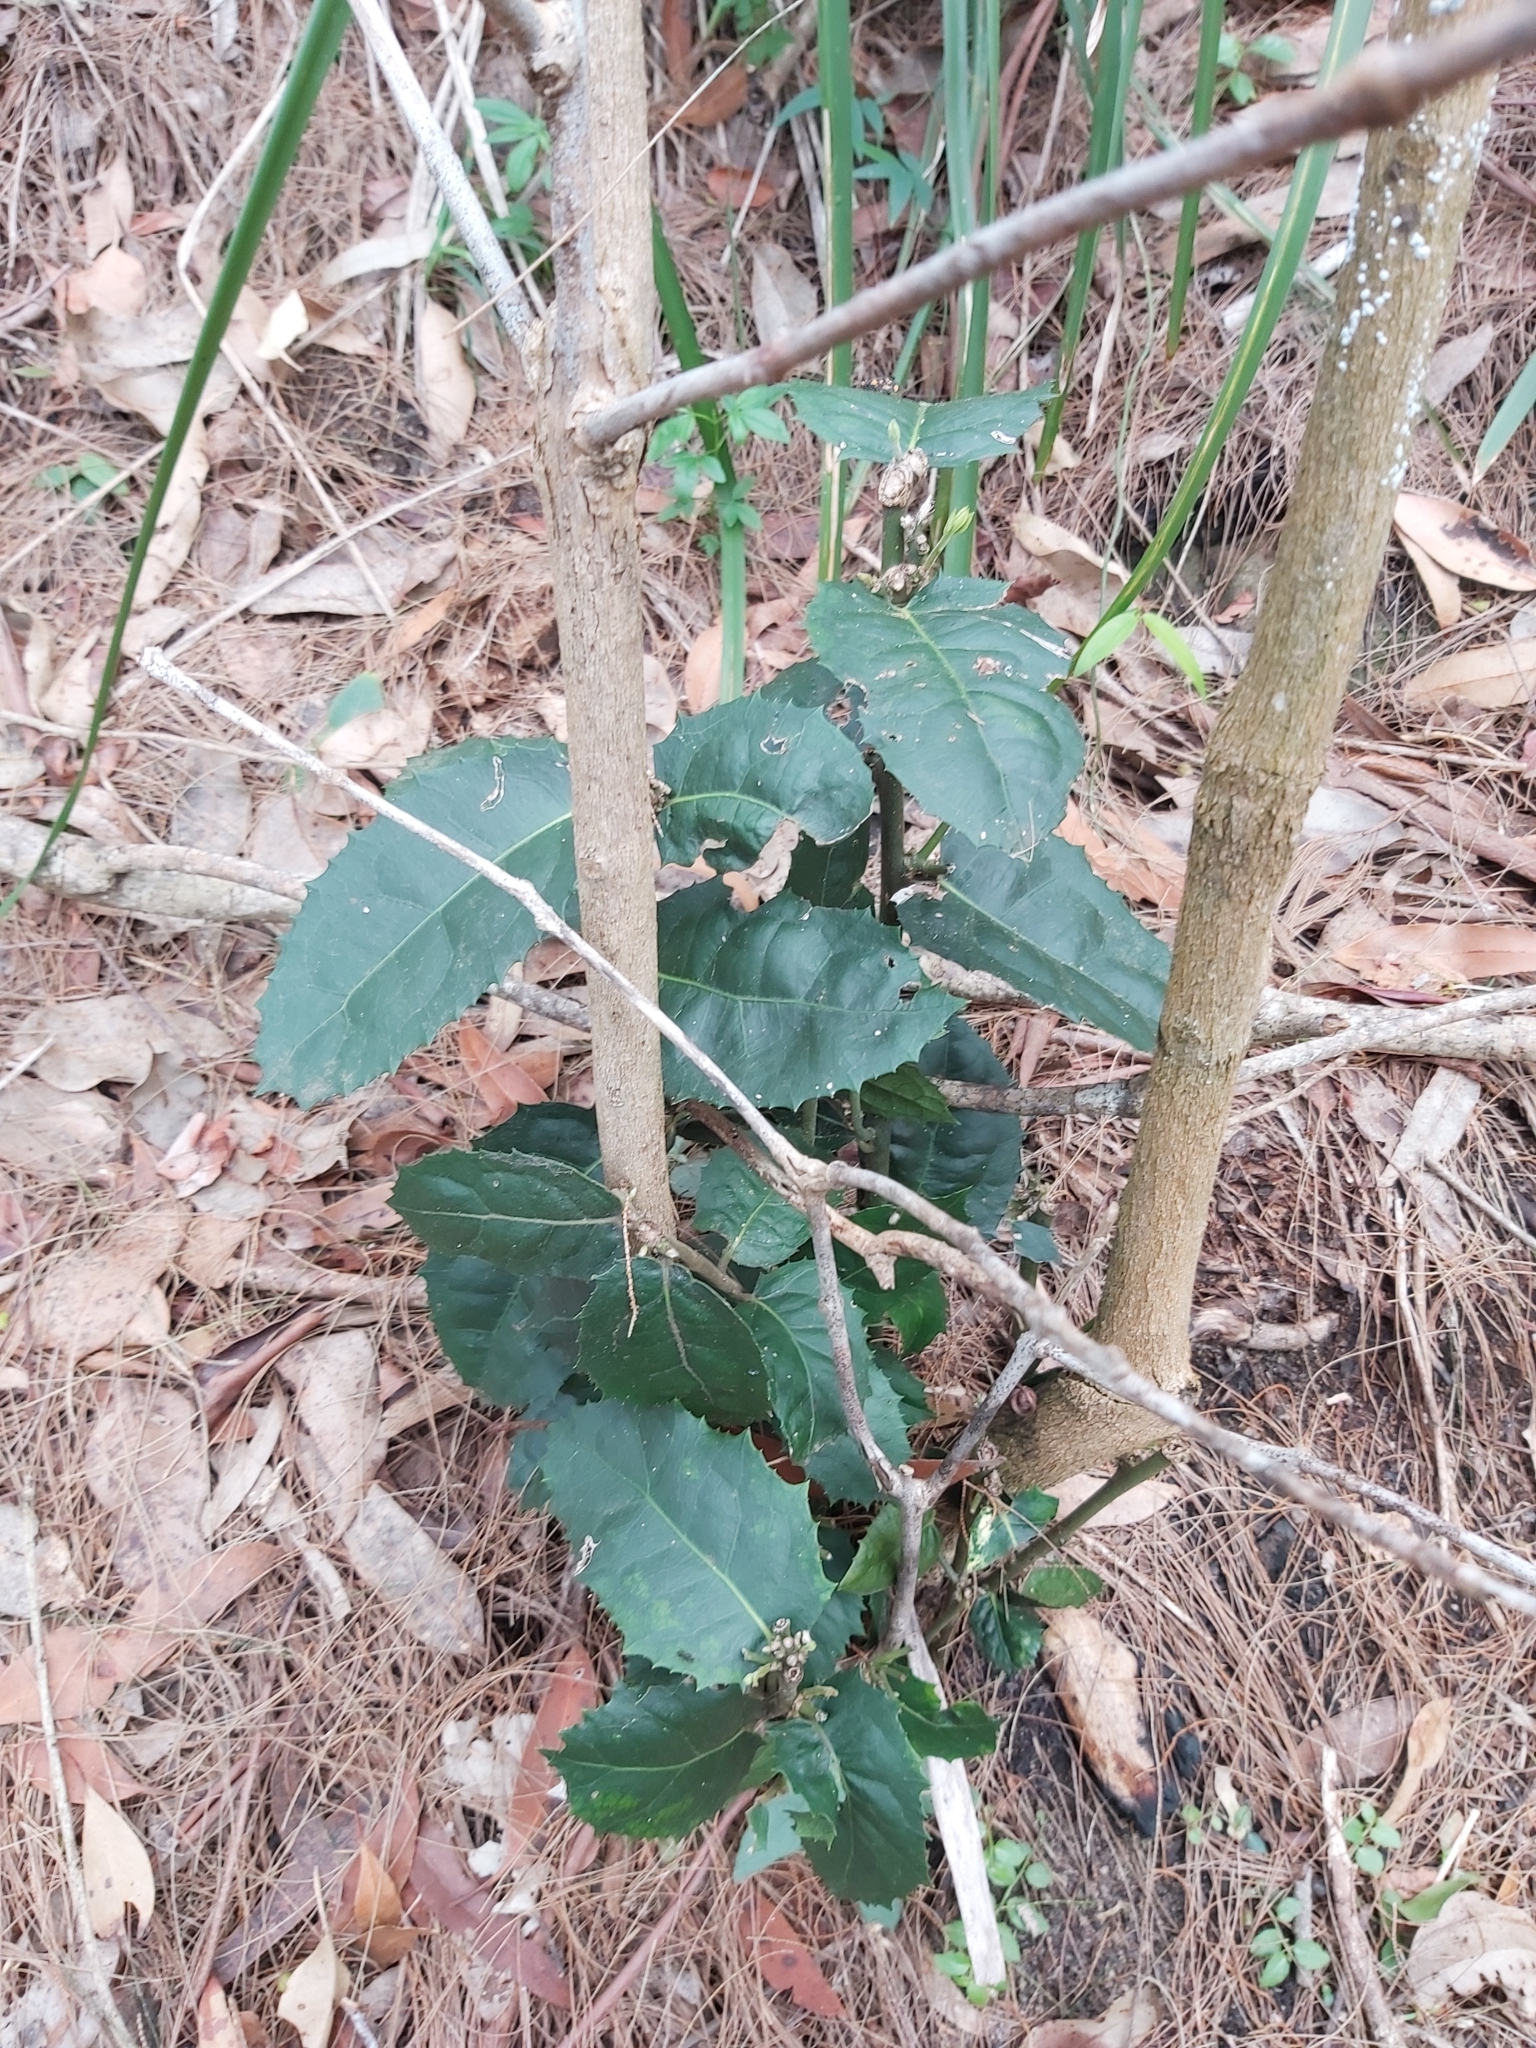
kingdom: Plantae
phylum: Tracheophyta
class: Magnoliopsida
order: Laurales
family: Monimiaceae
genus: Wilkiea
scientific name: Wilkiea hugeliana
